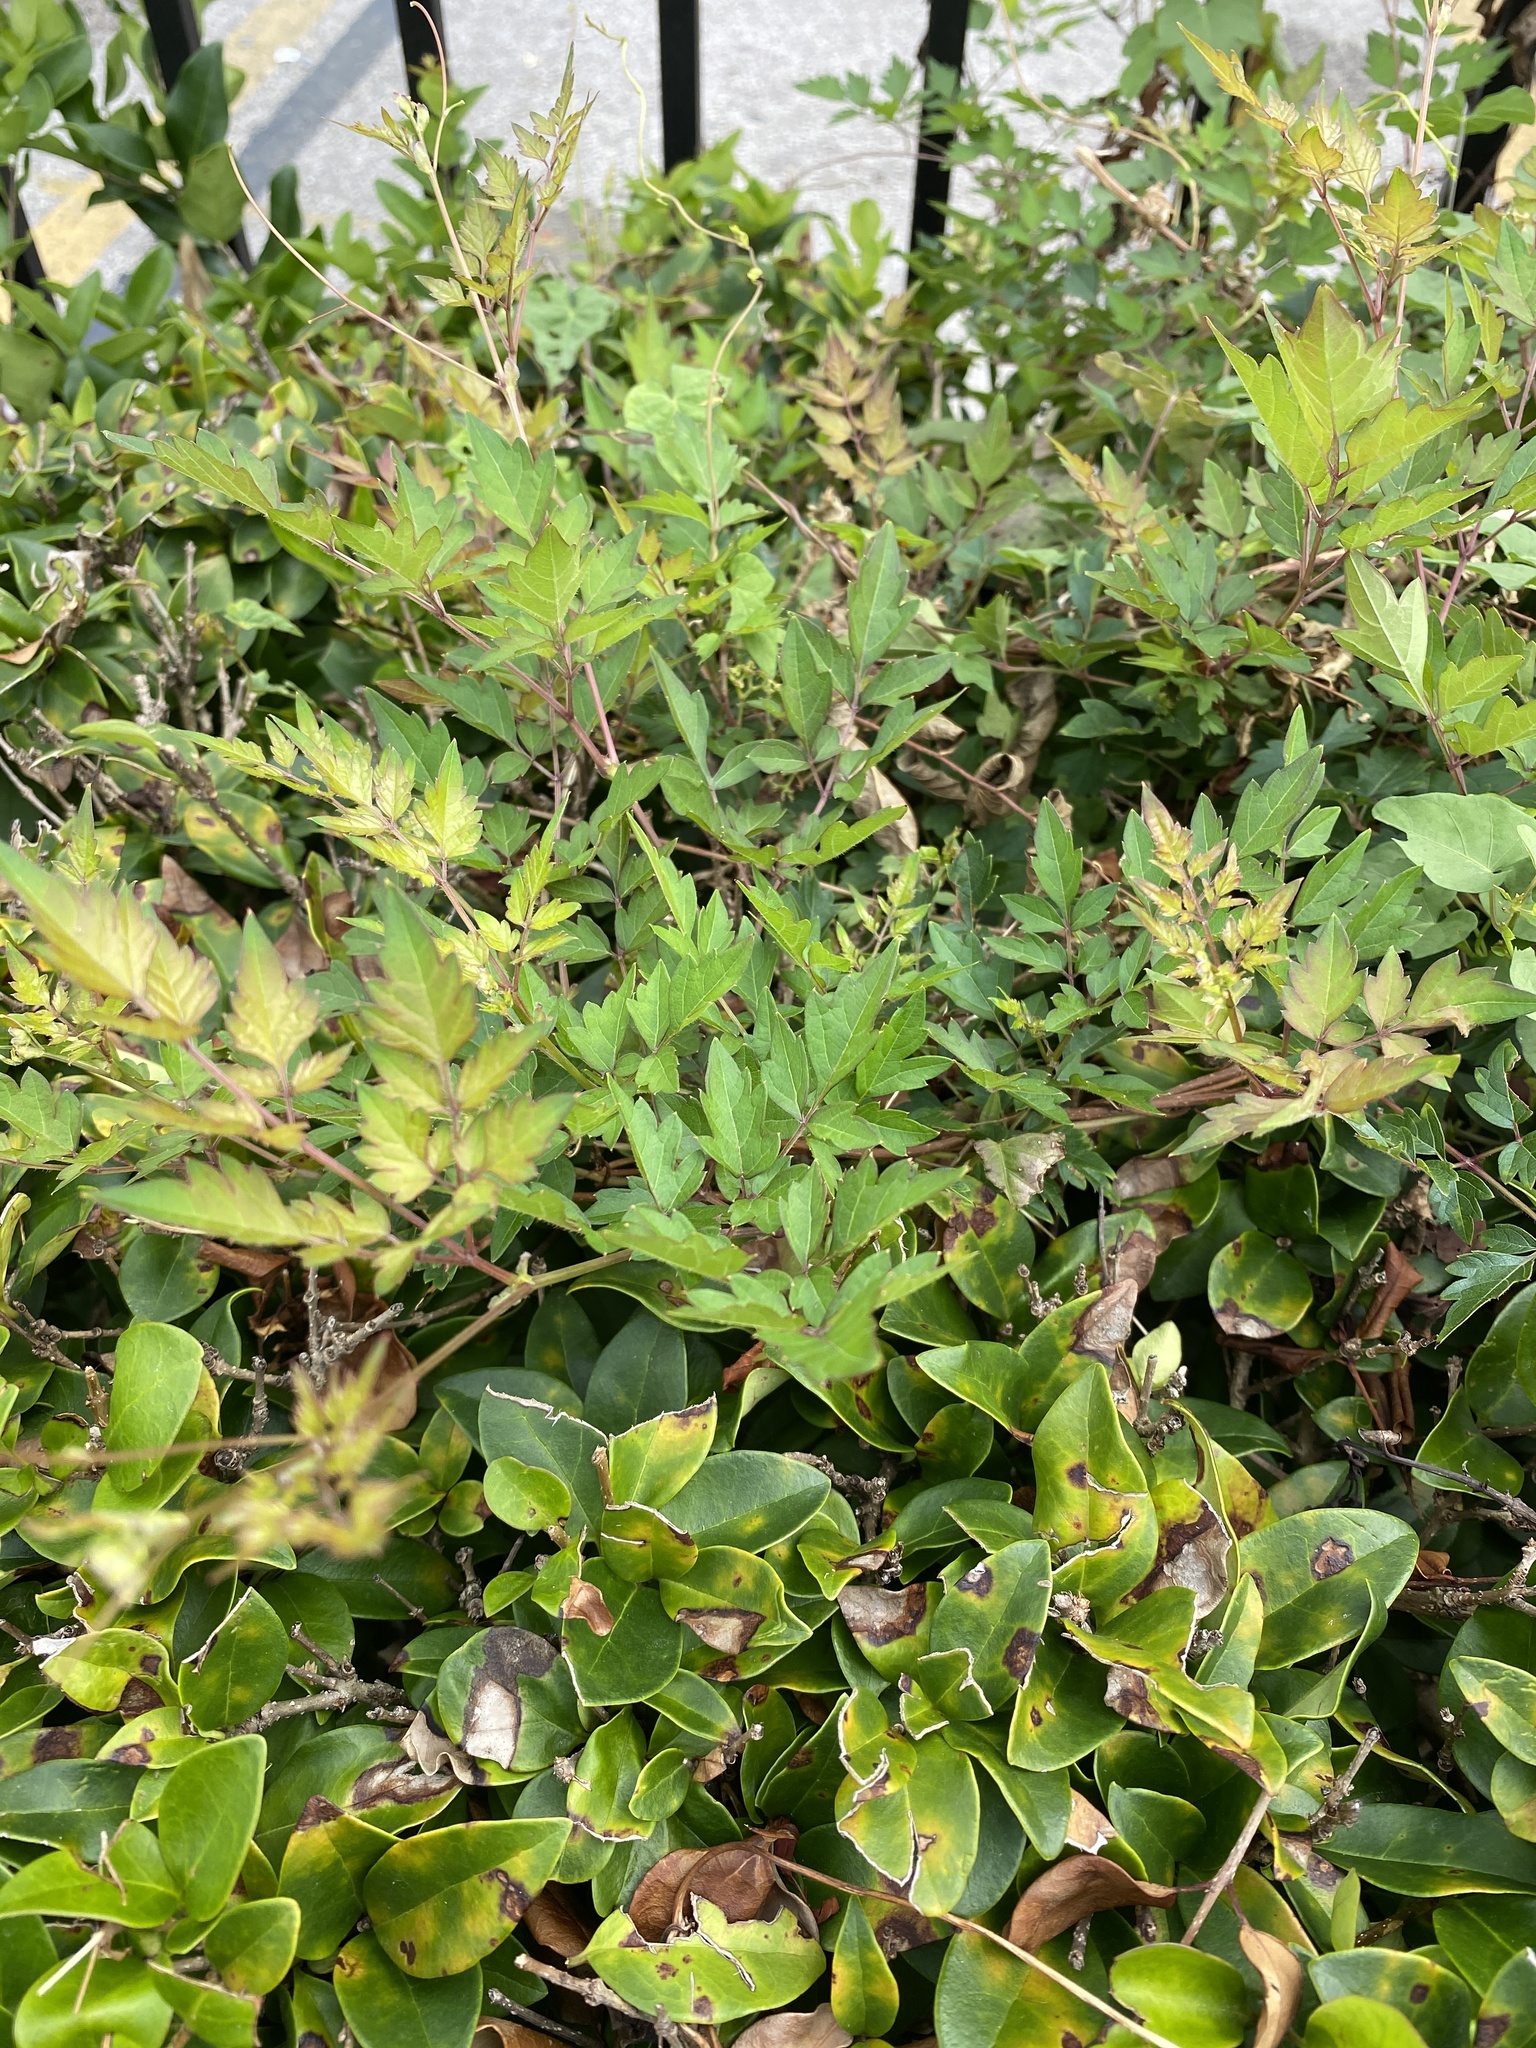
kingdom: Plantae
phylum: Tracheophyta
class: Magnoliopsida
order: Vitales
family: Vitaceae
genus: Nekemias
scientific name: Nekemias arborea
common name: Peppervine
